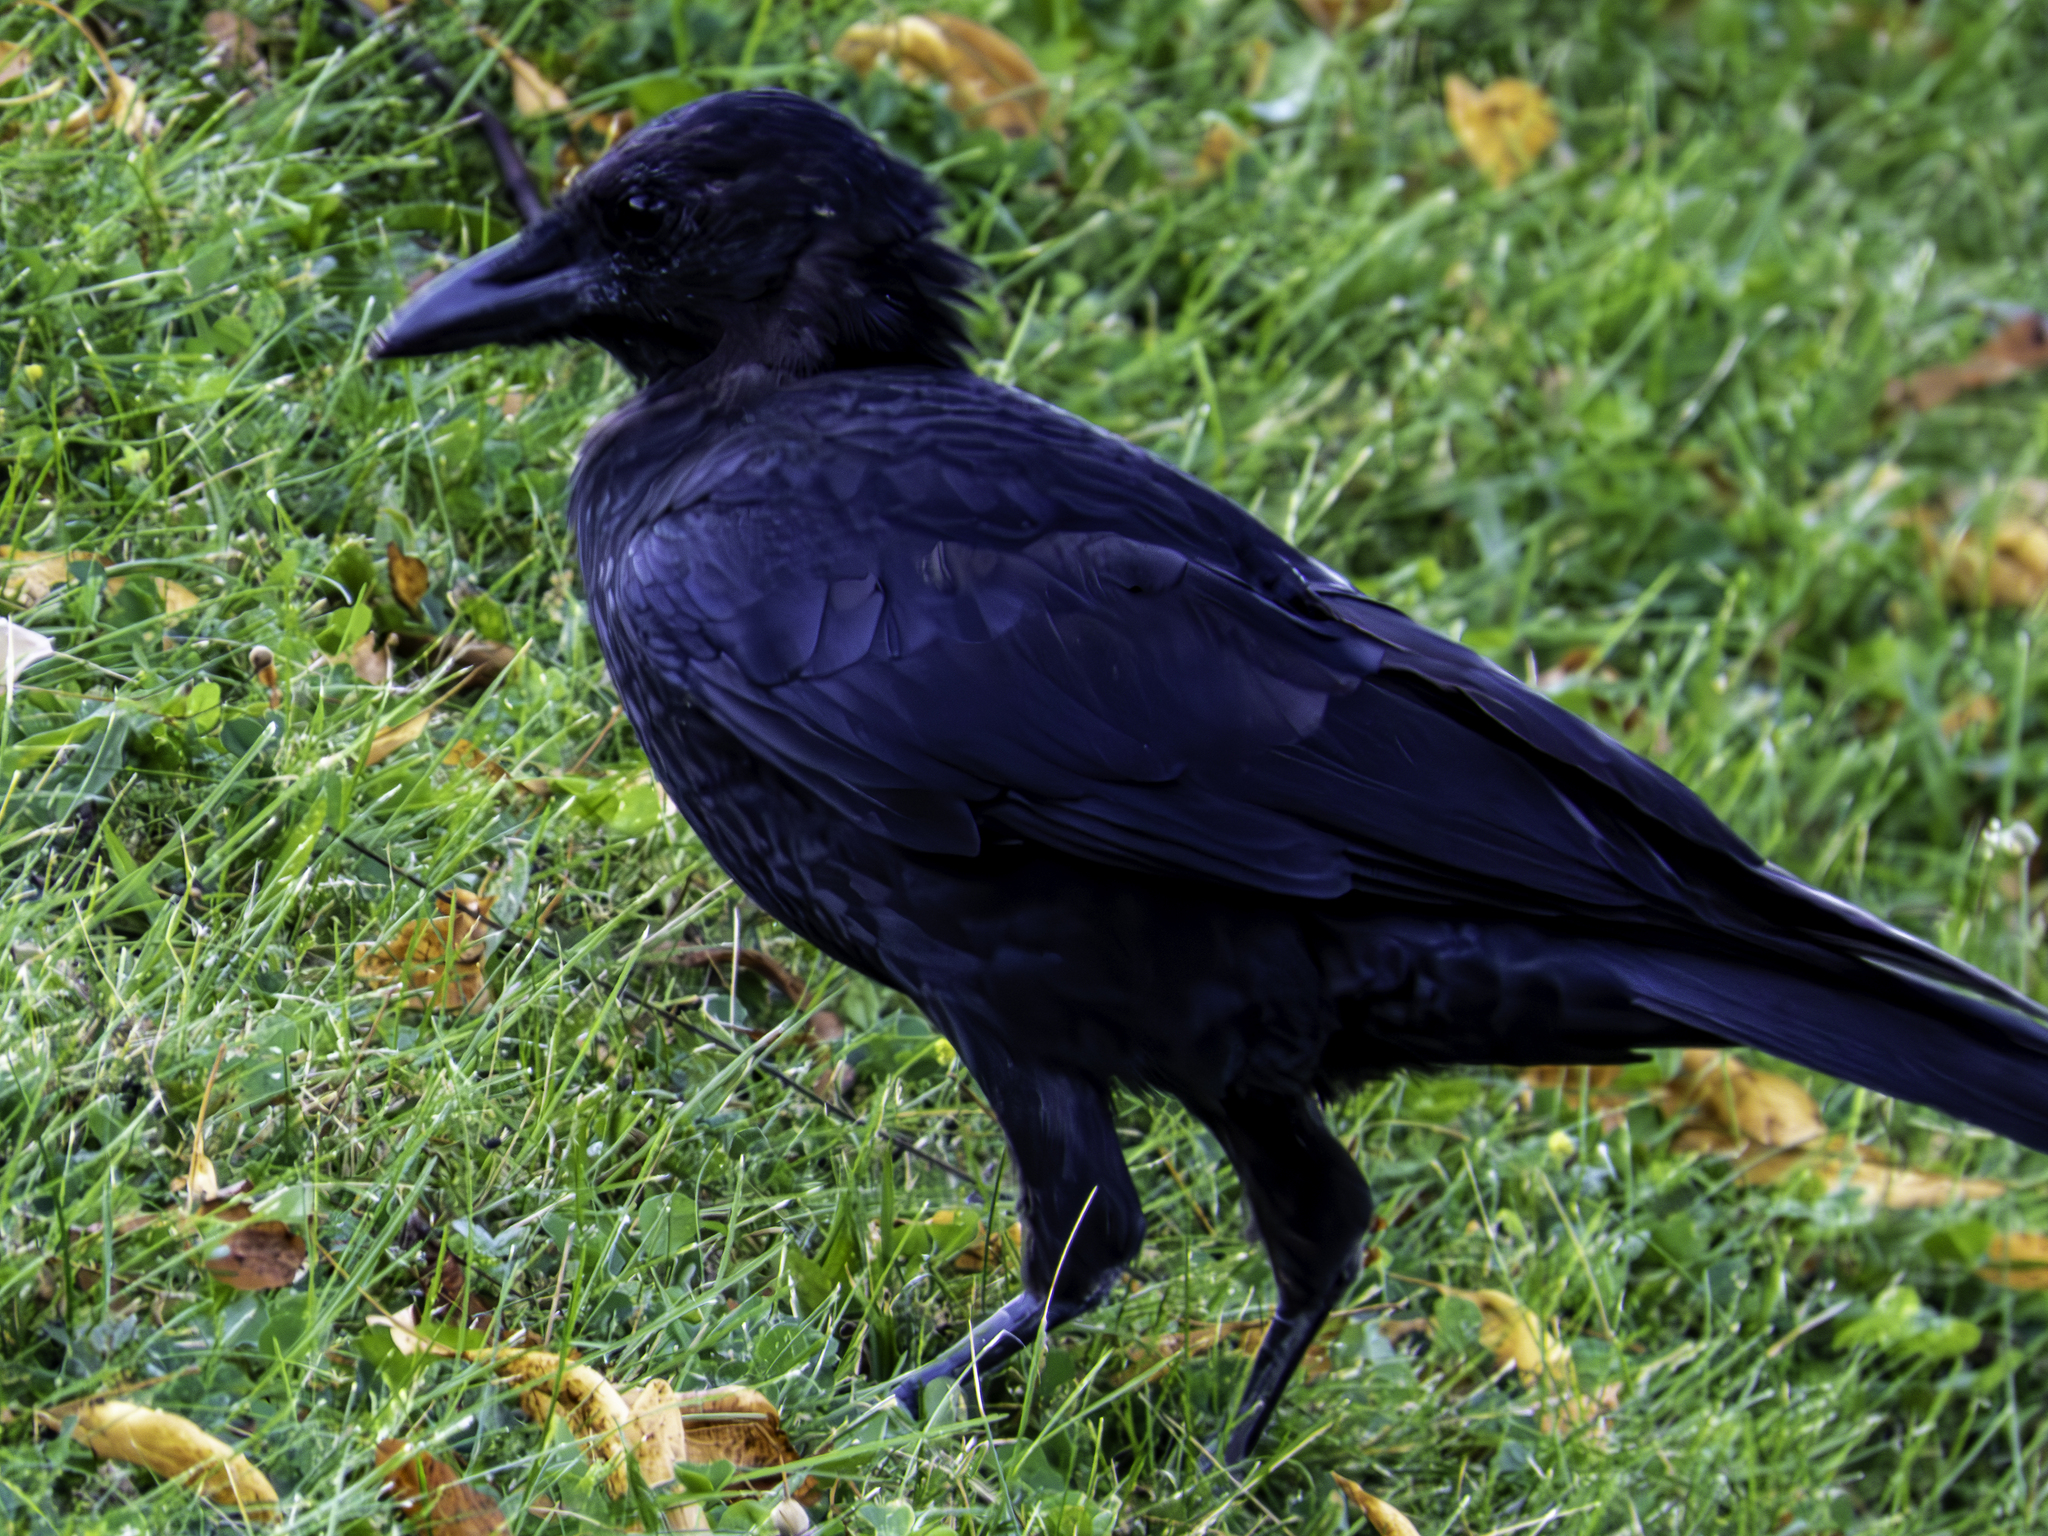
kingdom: Animalia
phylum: Chordata
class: Aves
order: Passeriformes
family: Corvidae
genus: Corvus
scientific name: Corvus brachyrhynchos
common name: American crow
